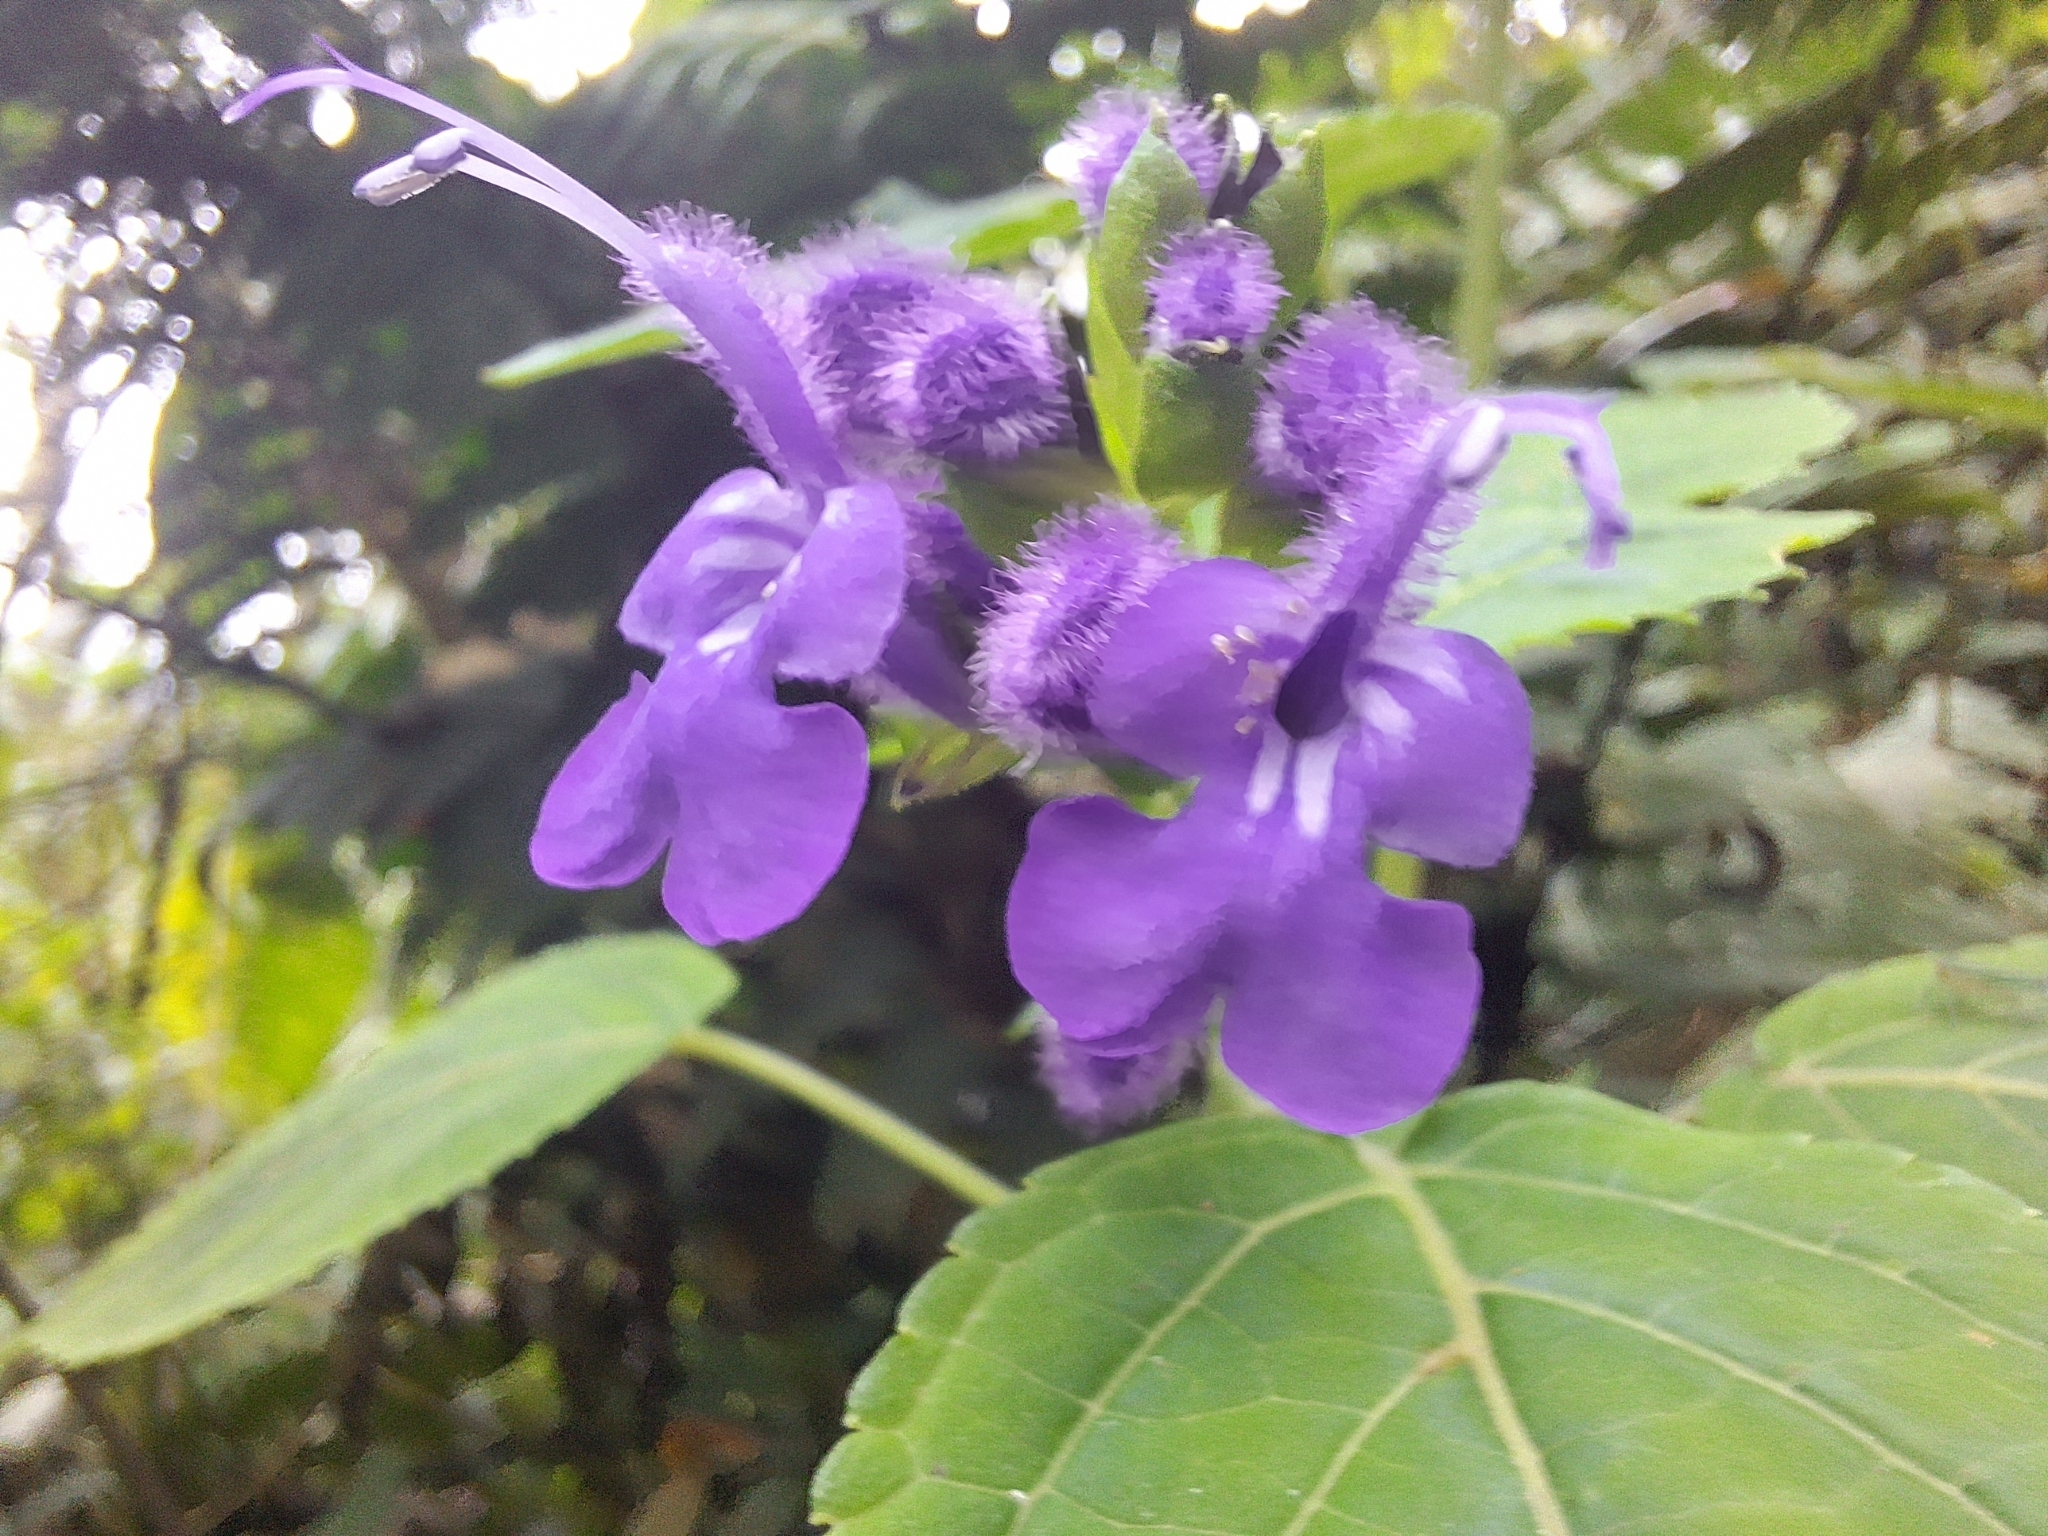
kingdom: Plantae
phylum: Tracheophyta
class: Magnoliopsida
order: Lamiales
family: Lamiaceae
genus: Salvia
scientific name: Salvia sigchosica
